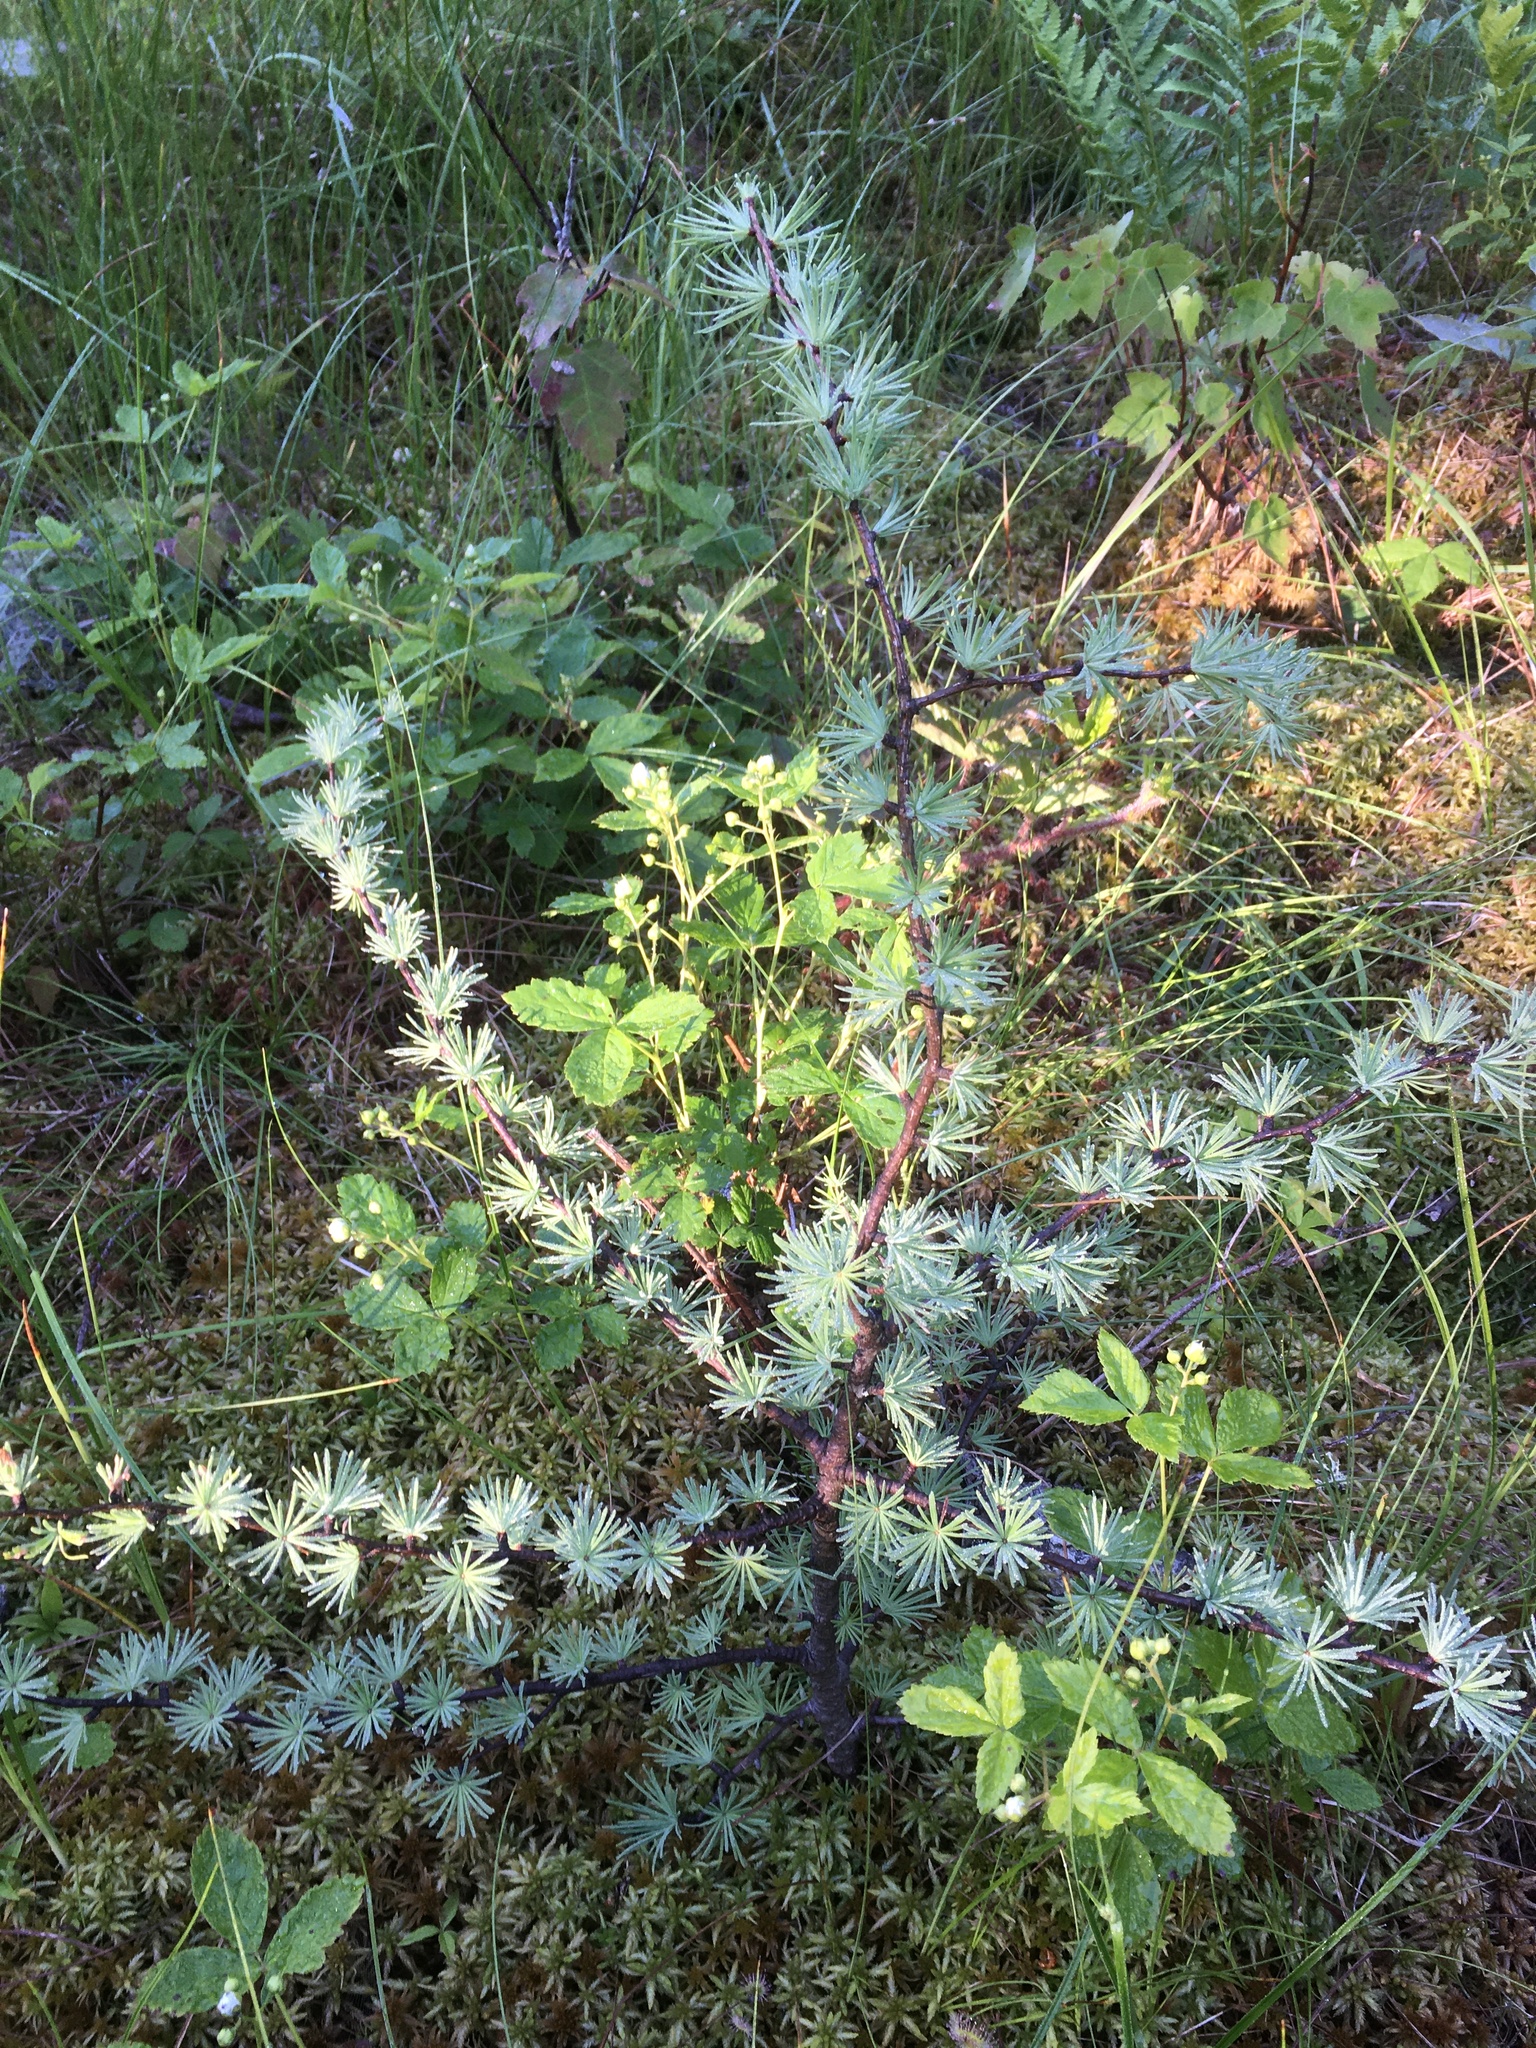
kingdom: Plantae
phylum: Tracheophyta
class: Pinopsida
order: Pinales
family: Pinaceae
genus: Larix
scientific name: Larix laricina
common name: American larch
